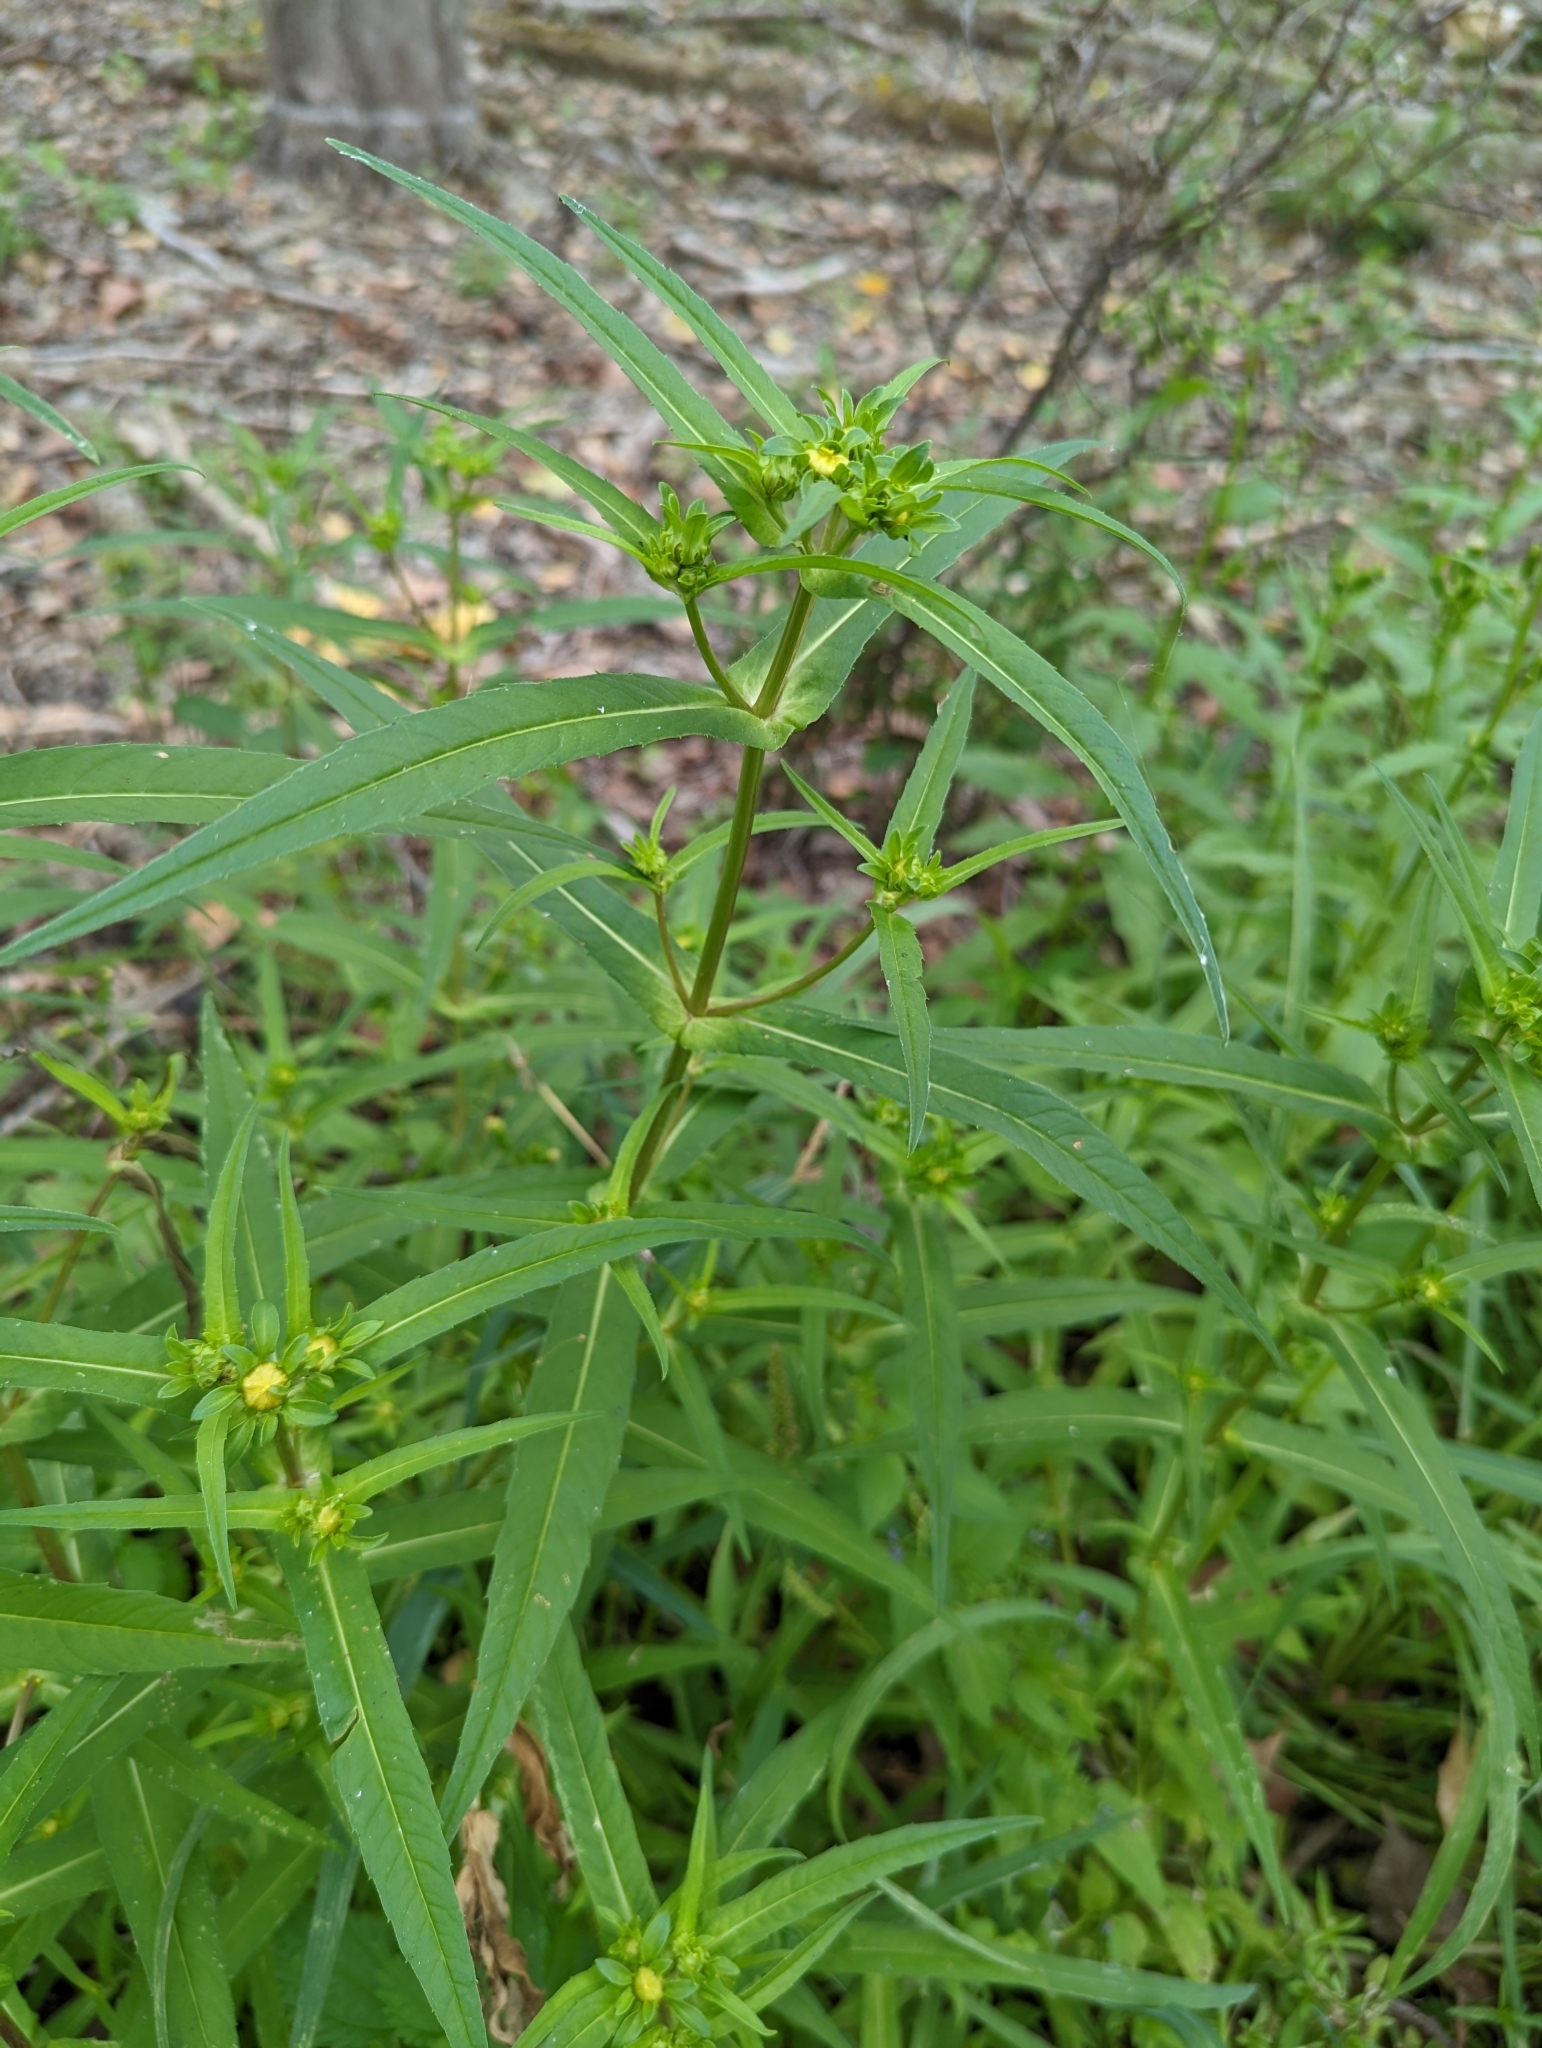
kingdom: Plantae
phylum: Tracheophyta
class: Magnoliopsida
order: Asterales
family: Asteraceae
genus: Bidens
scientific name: Bidens cernua
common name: Nodding bur-marigold
